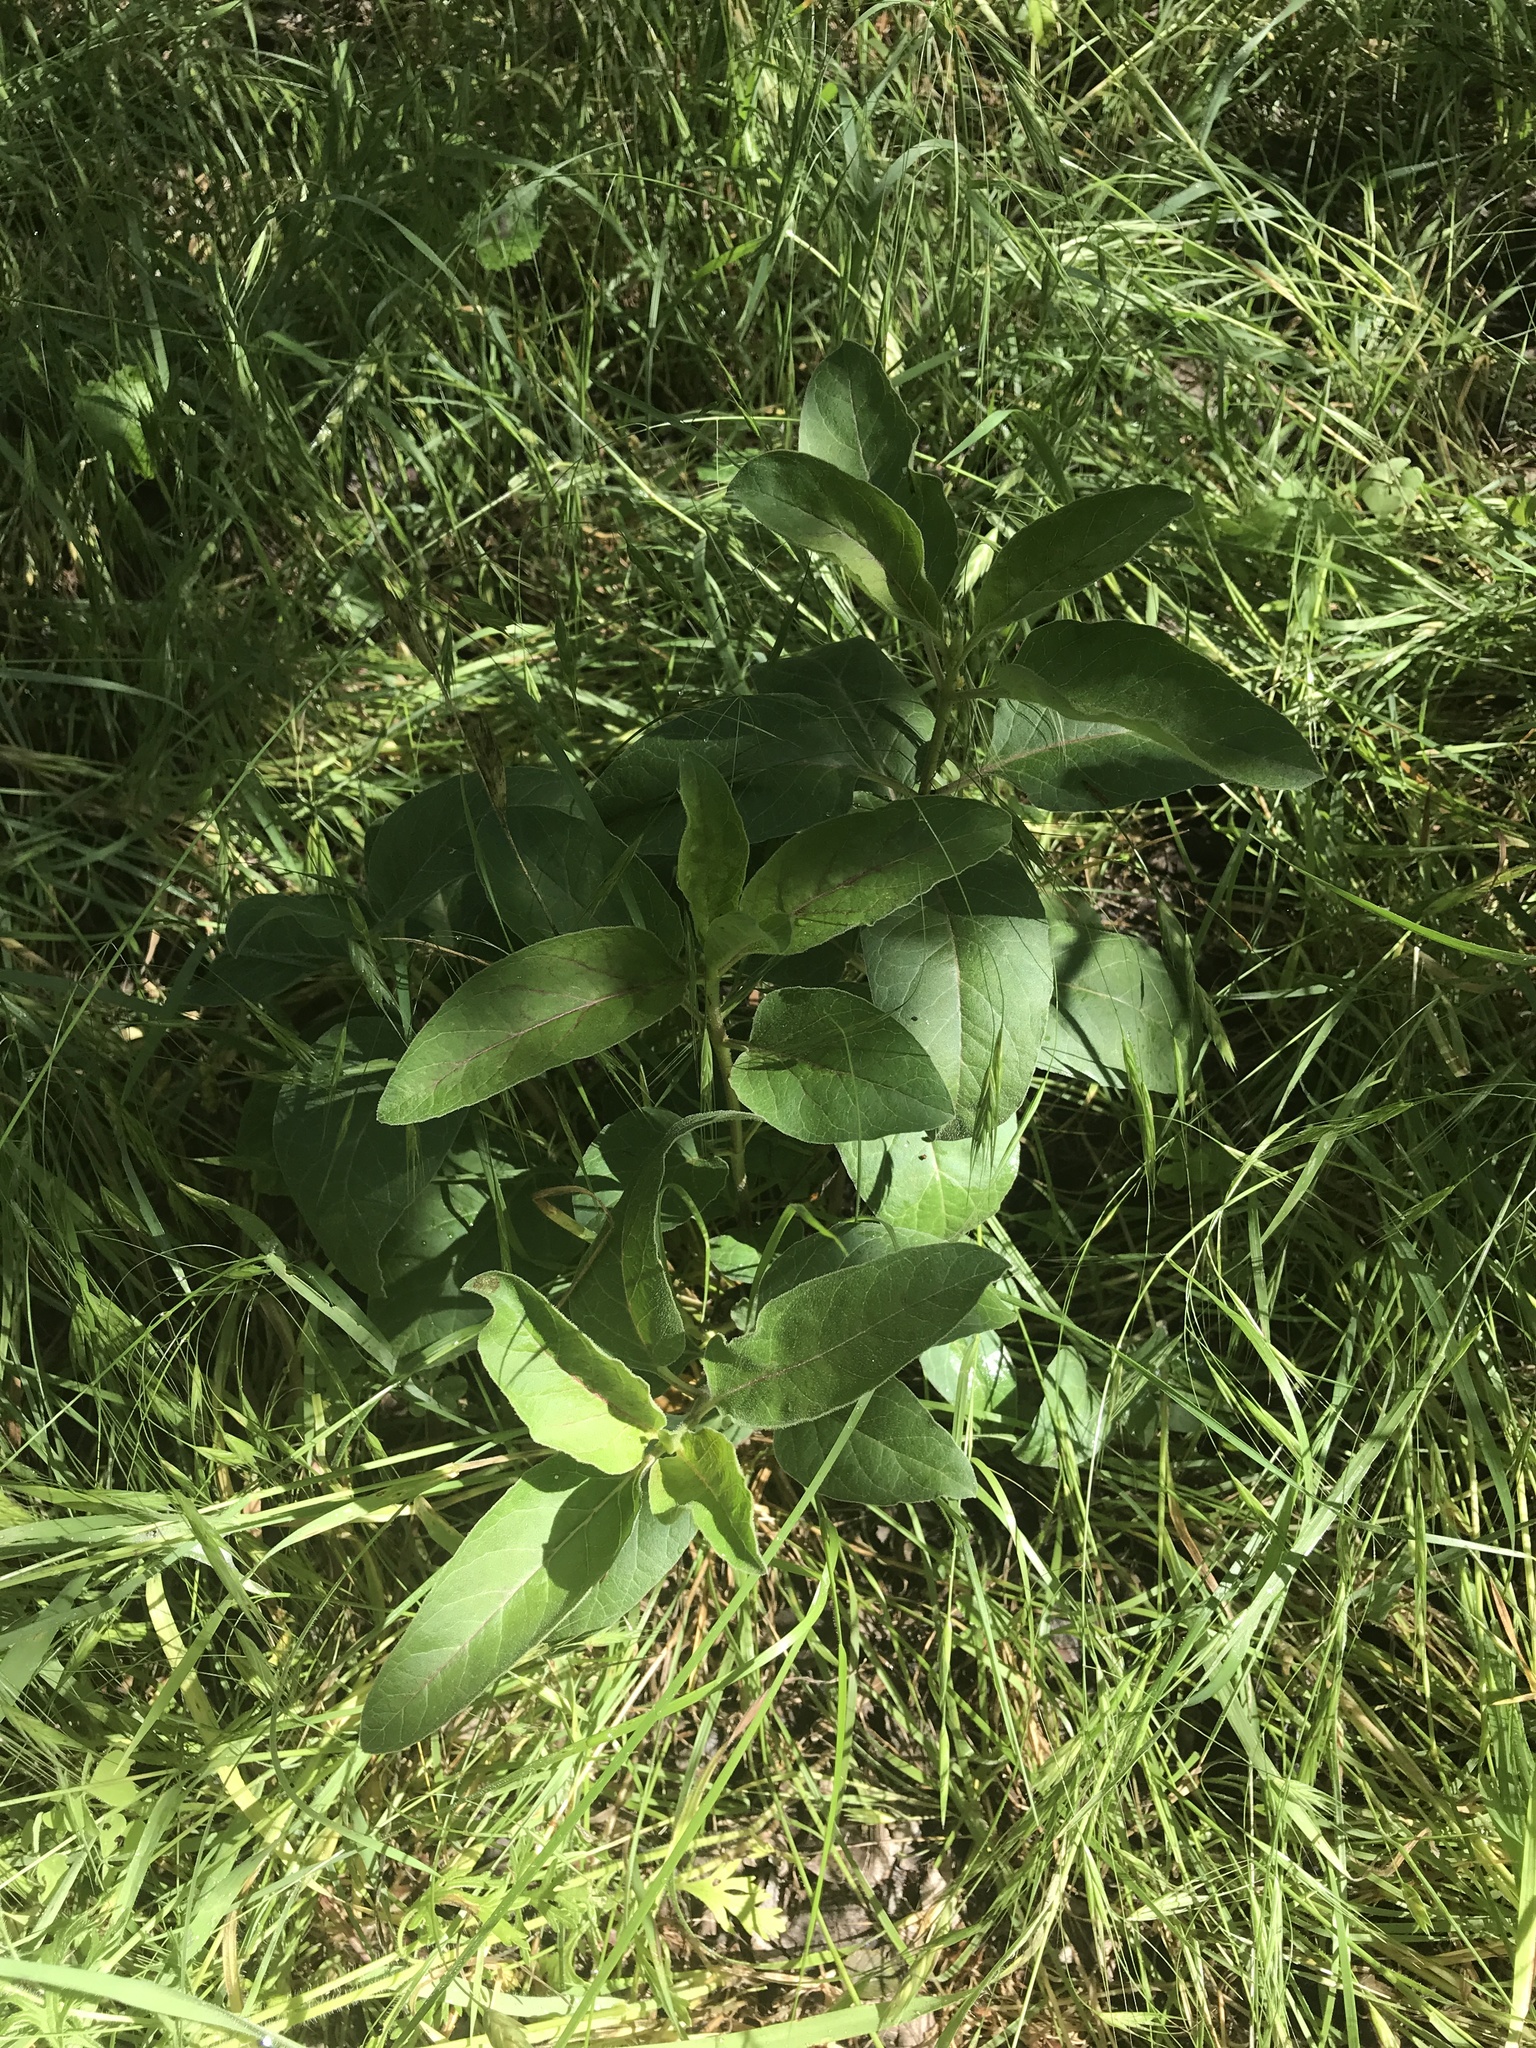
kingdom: Plantae
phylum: Tracheophyta
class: Magnoliopsida
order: Gentianales
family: Apocynaceae
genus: Asclepias
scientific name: Asclepias oenotheroides
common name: Zizotes milkweed
